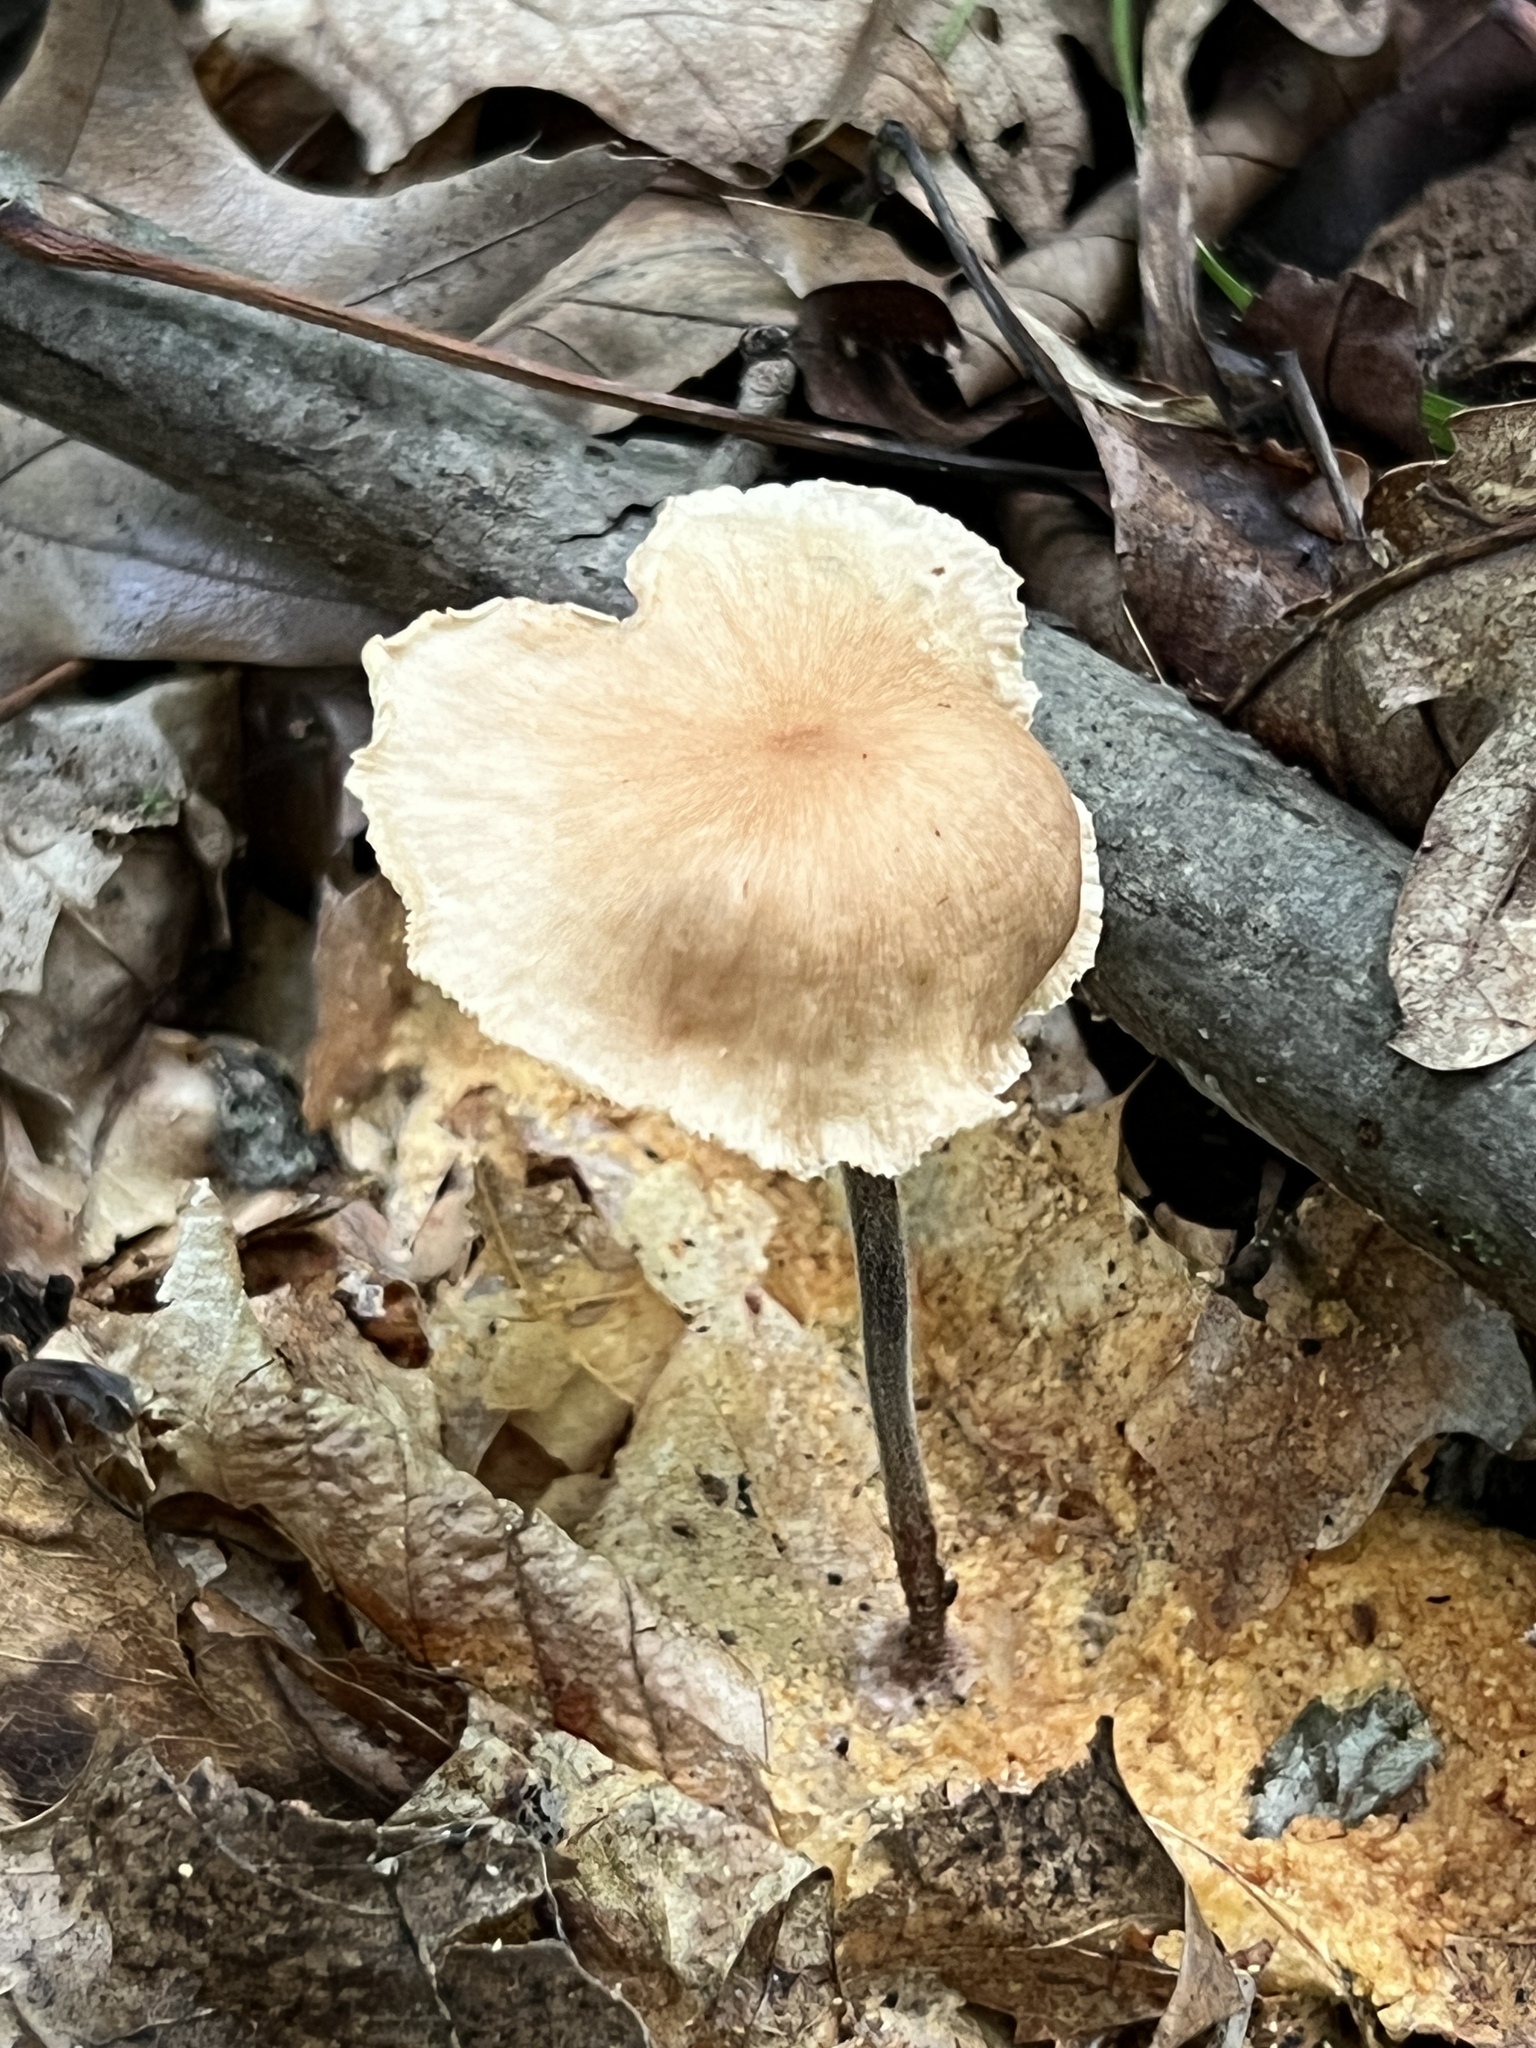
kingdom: Fungi
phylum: Basidiomycota
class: Agaricomycetes
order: Agaricales
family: Omphalotaceae
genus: Collybiopsis
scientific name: Collybiopsis subnuda
